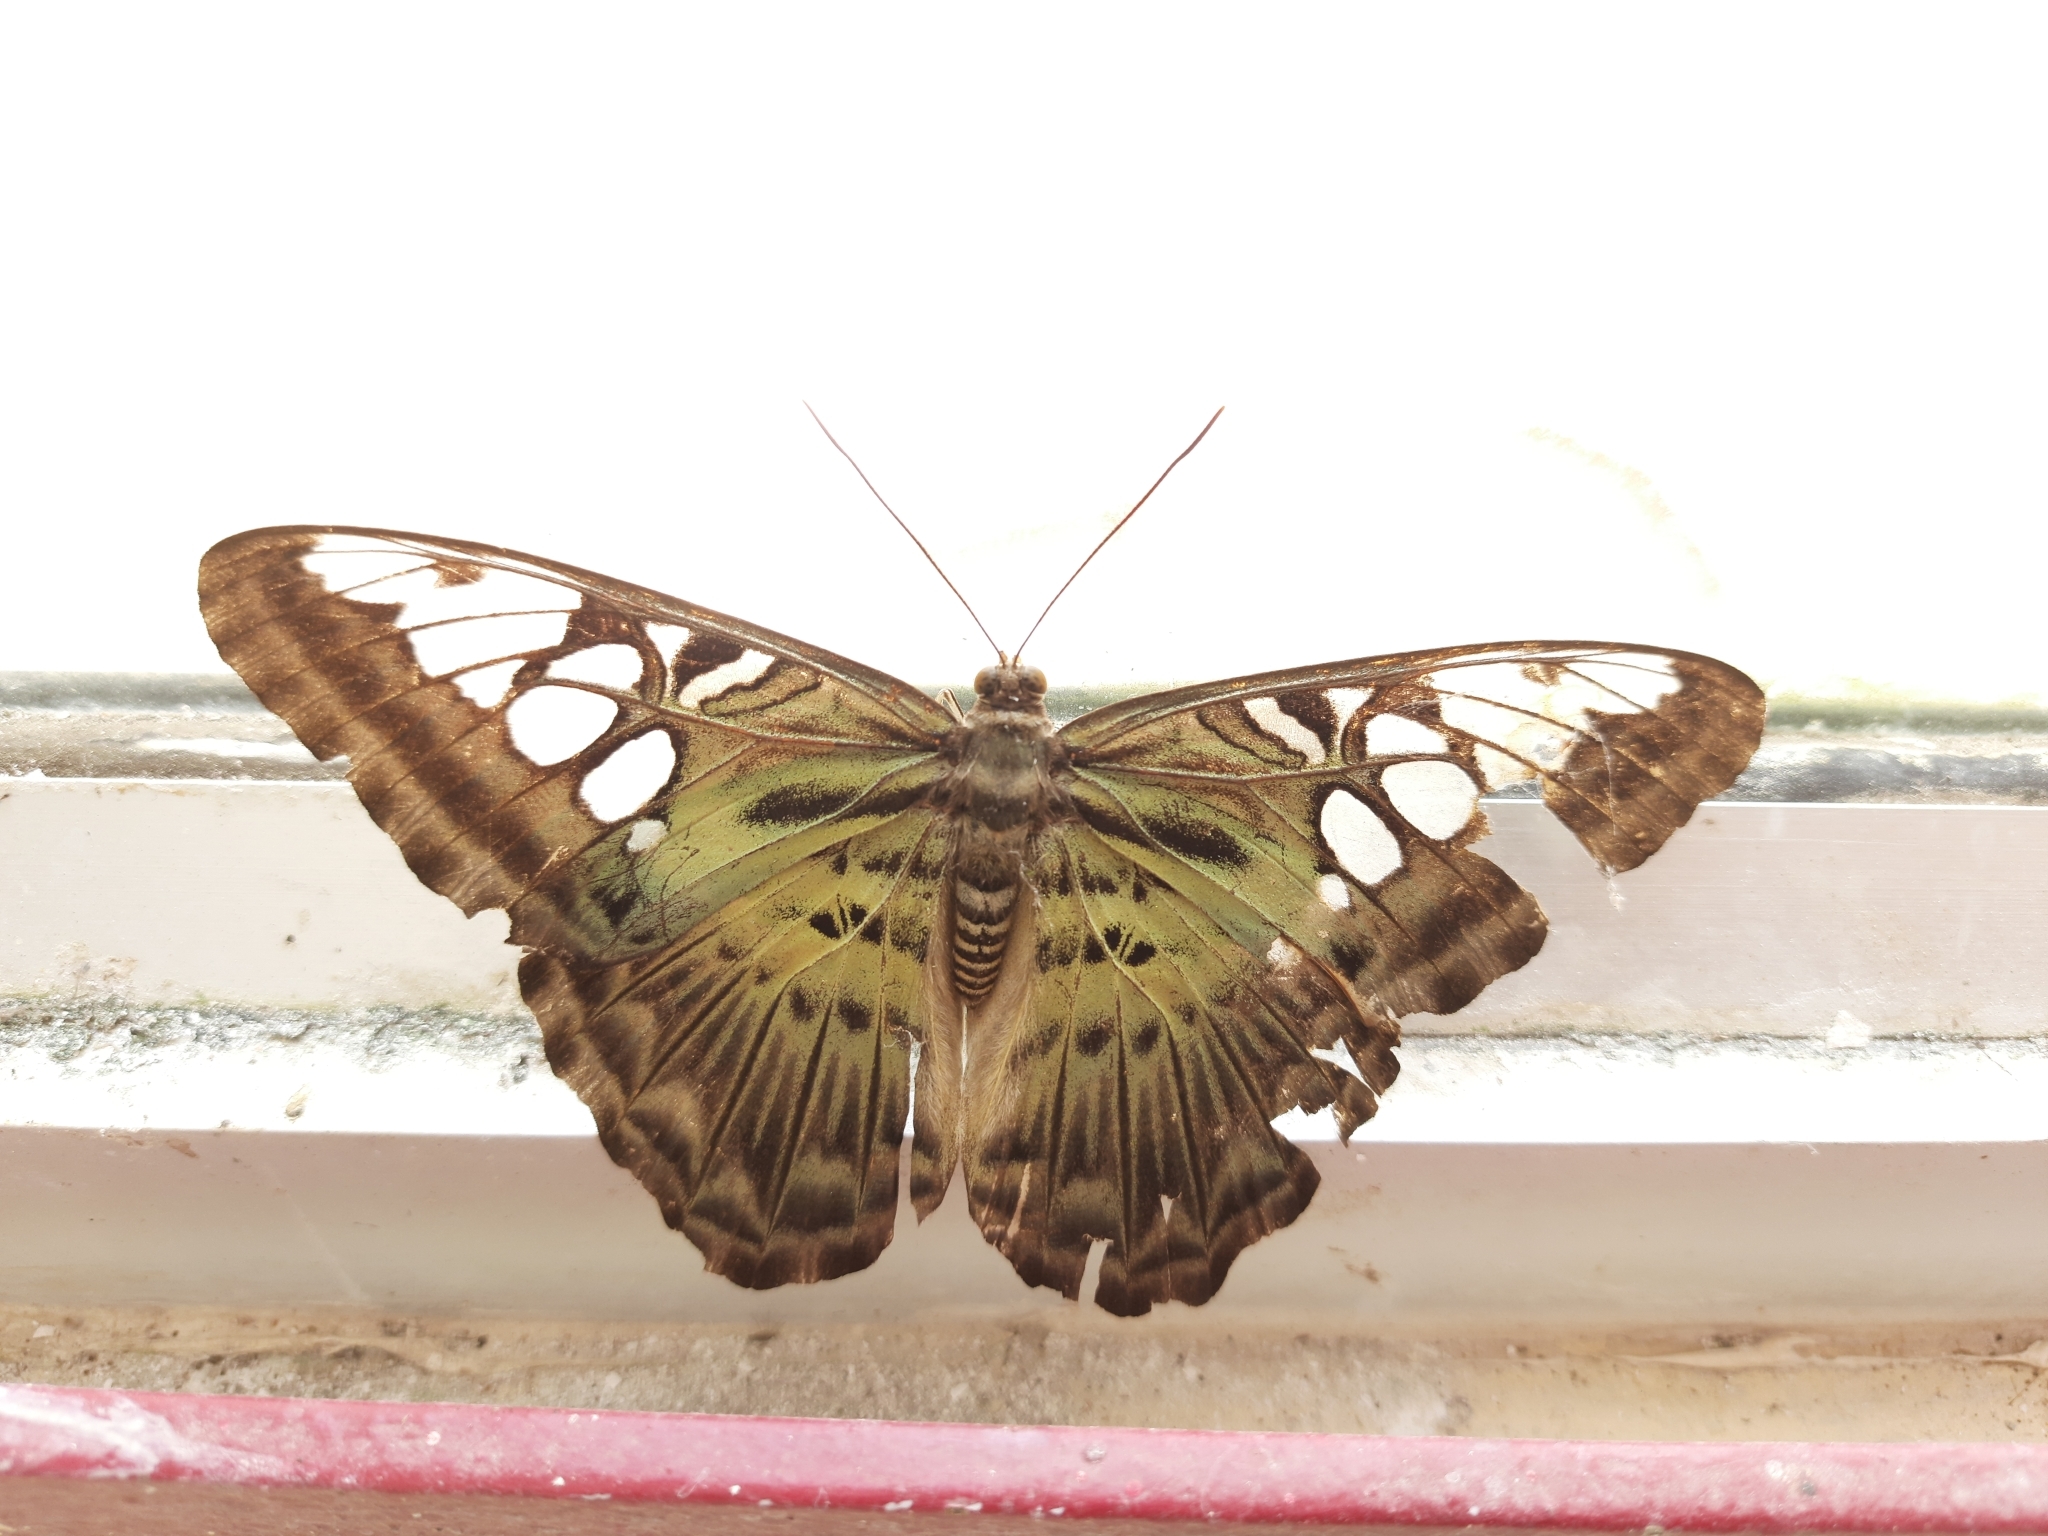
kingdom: Animalia
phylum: Arthropoda
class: Insecta
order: Lepidoptera
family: Nymphalidae
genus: Kallima
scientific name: Kallima sylvia
